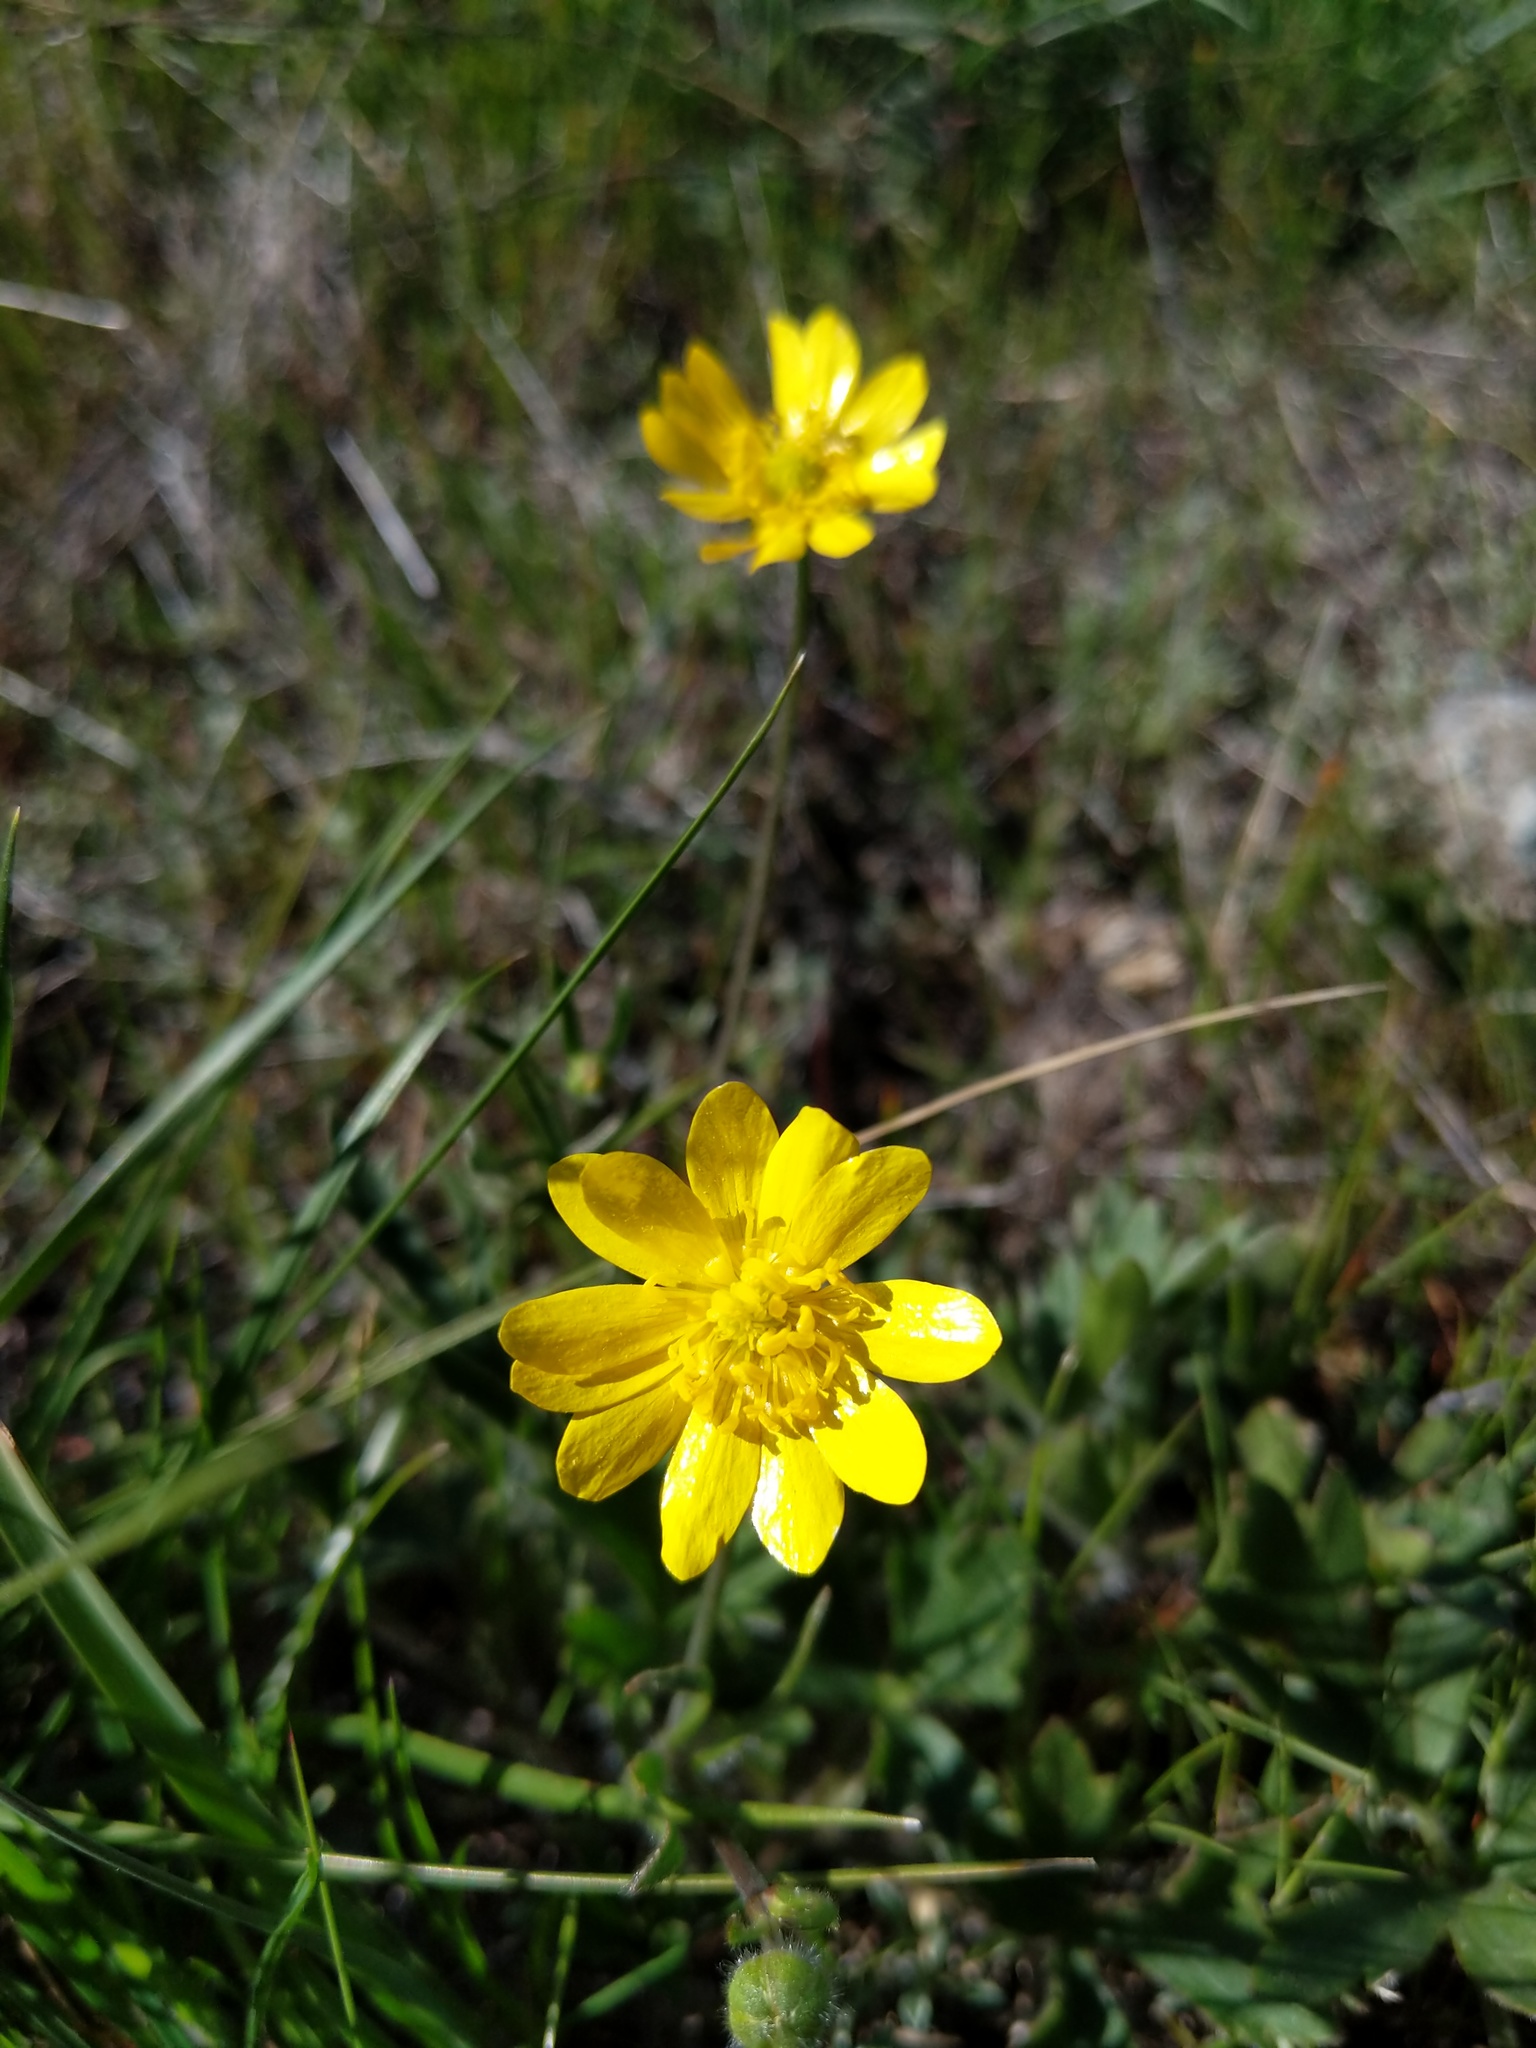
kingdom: Plantae
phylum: Tracheophyta
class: Magnoliopsida
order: Ranunculales
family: Ranunculaceae
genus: Ranunculus
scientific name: Ranunculus californicus
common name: California buttercup
